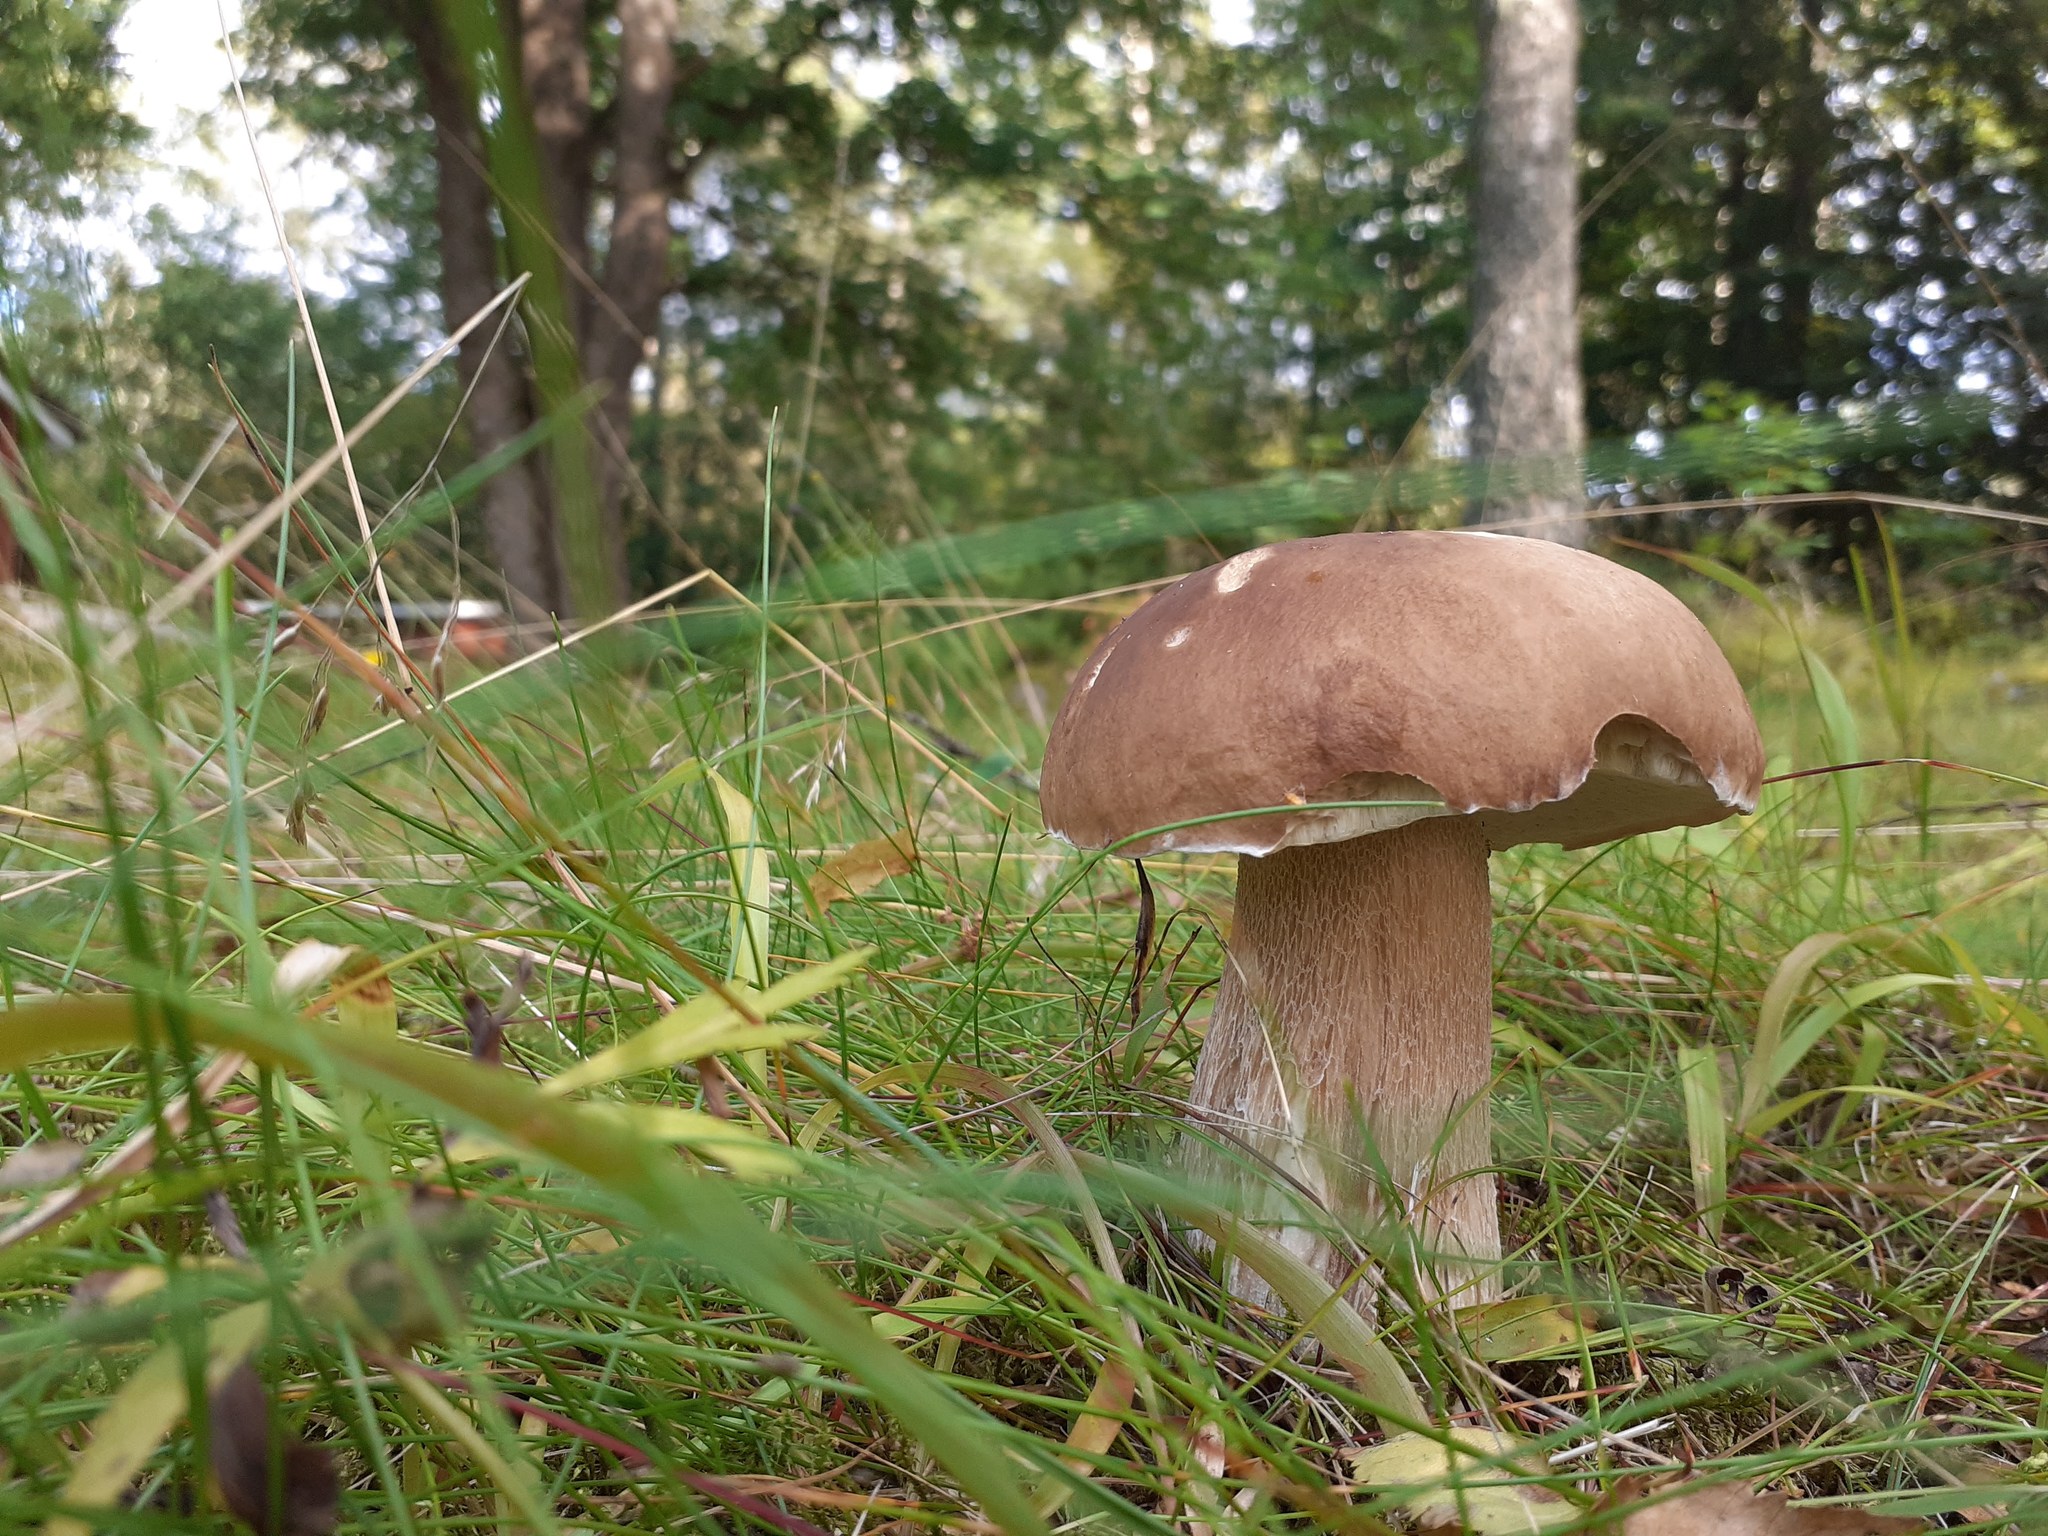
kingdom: Fungi
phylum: Basidiomycota
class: Agaricomycetes
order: Boletales
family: Boletaceae
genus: Boletus
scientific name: Boletus edulis
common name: Cep
